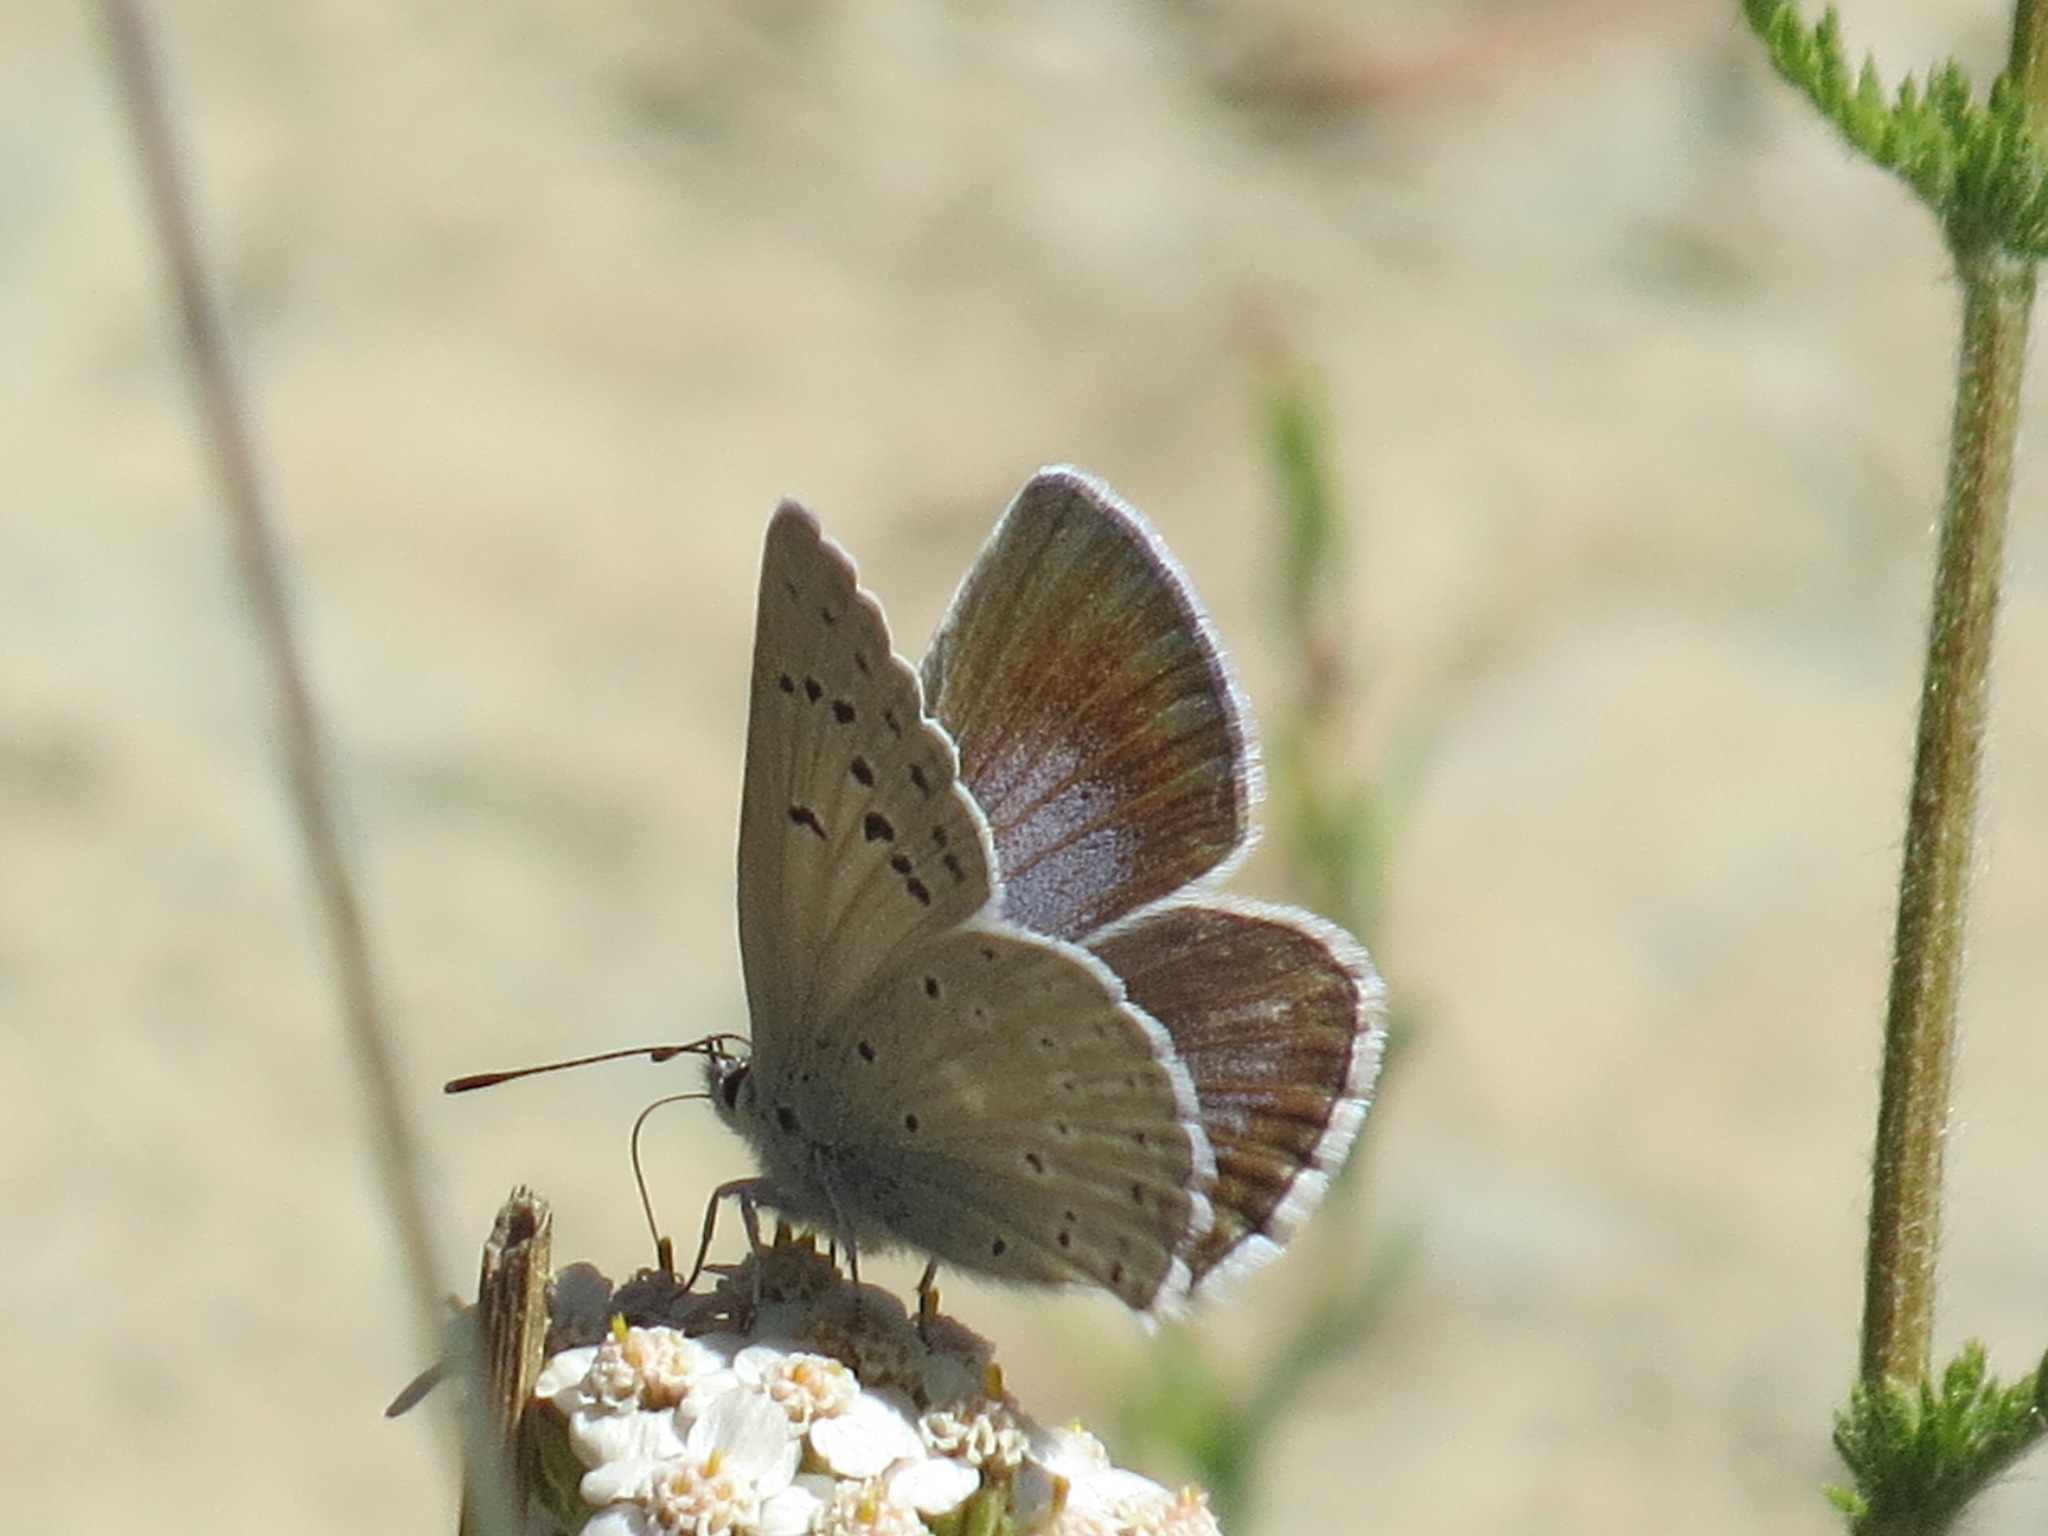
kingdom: Animalia
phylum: Arthropoda
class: Insecta
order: Lepidoptera
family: Lycaenidae
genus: Icaricia
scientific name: Icaricia icarioides
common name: Boisduval's blue
